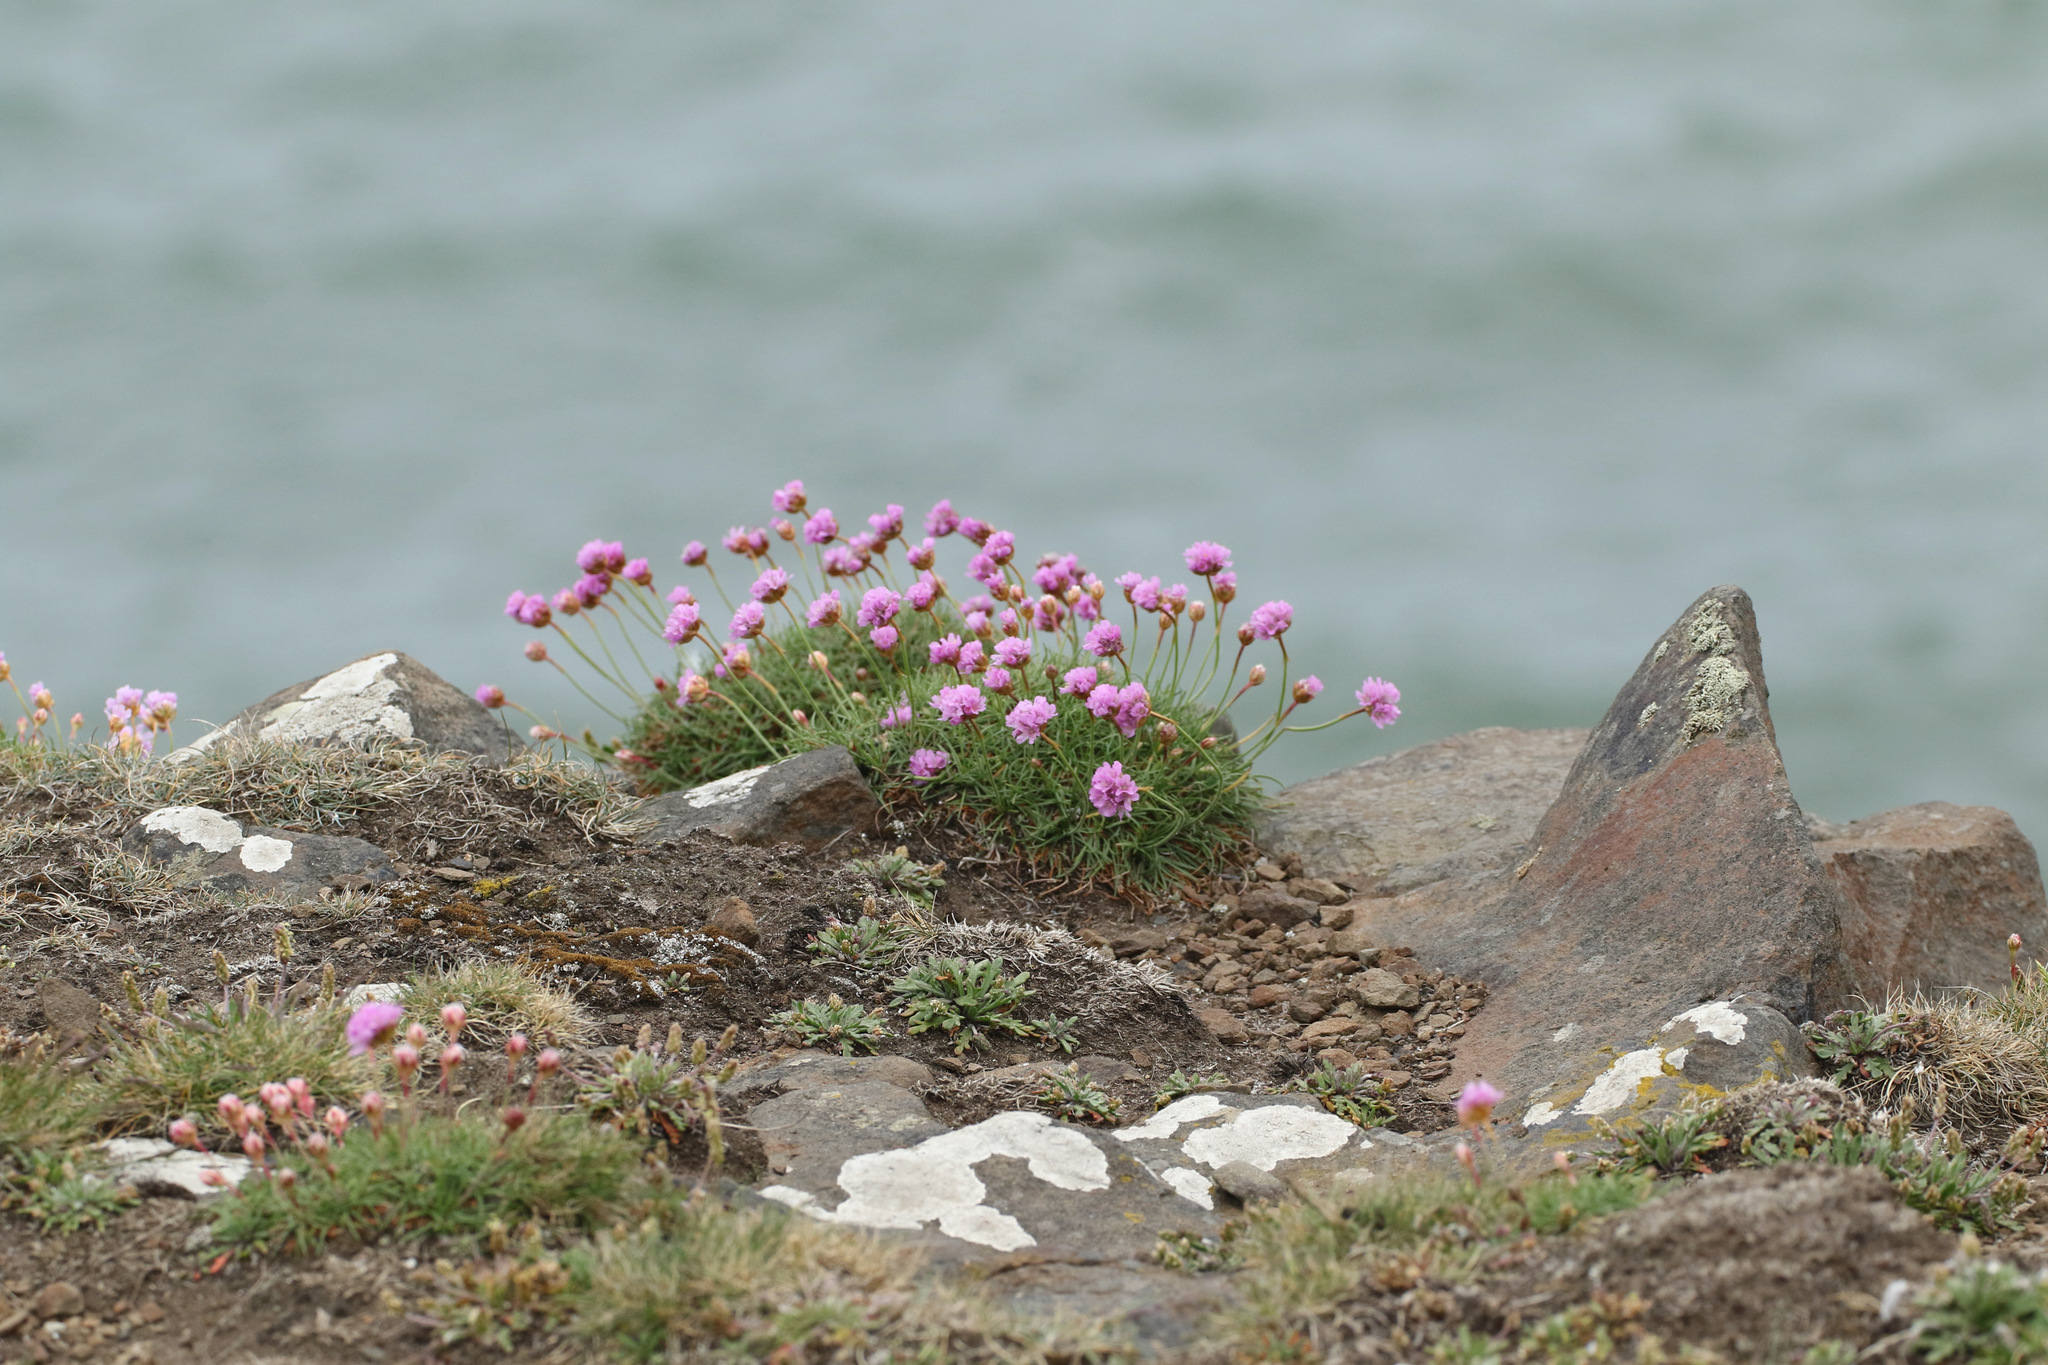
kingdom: Plantae
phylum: Tracheophyta
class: Magnoliopsida
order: Caryophyllales
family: Plumbaginaceae
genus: Armeria
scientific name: Armeria maritima
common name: Thrift
